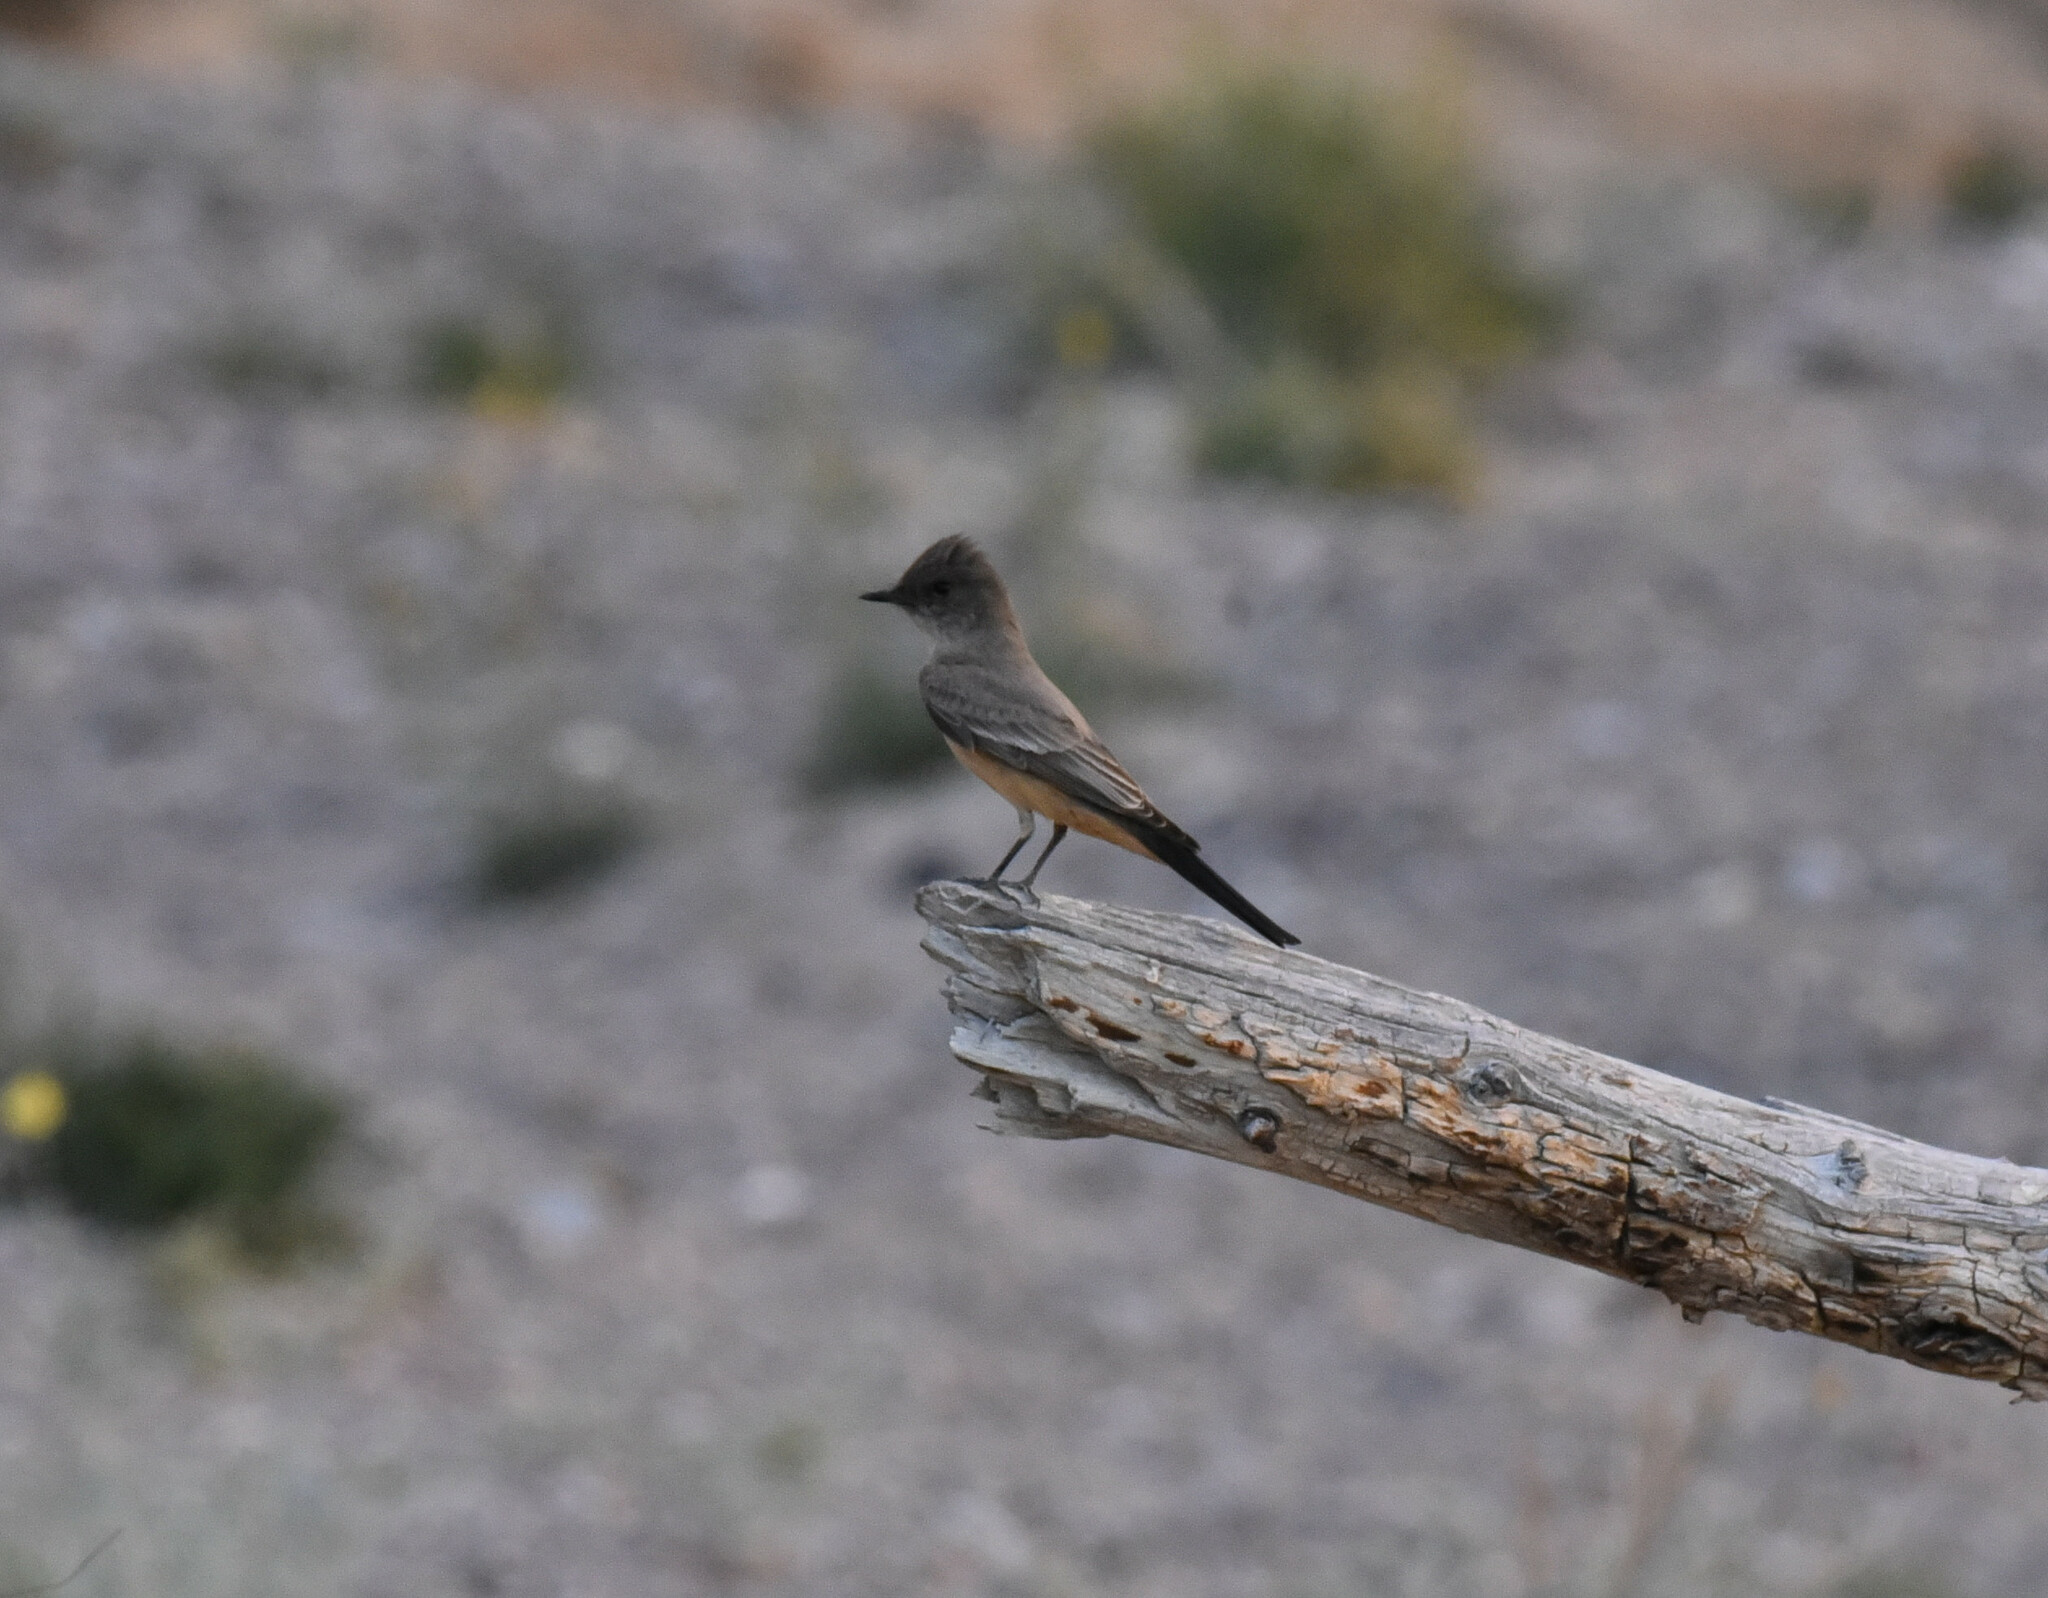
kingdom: Animalia
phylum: Chordata
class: Aves
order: Passeriformes
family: Tyrannidae
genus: Sayornis
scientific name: Sayornis saya
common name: Say's phoebe
